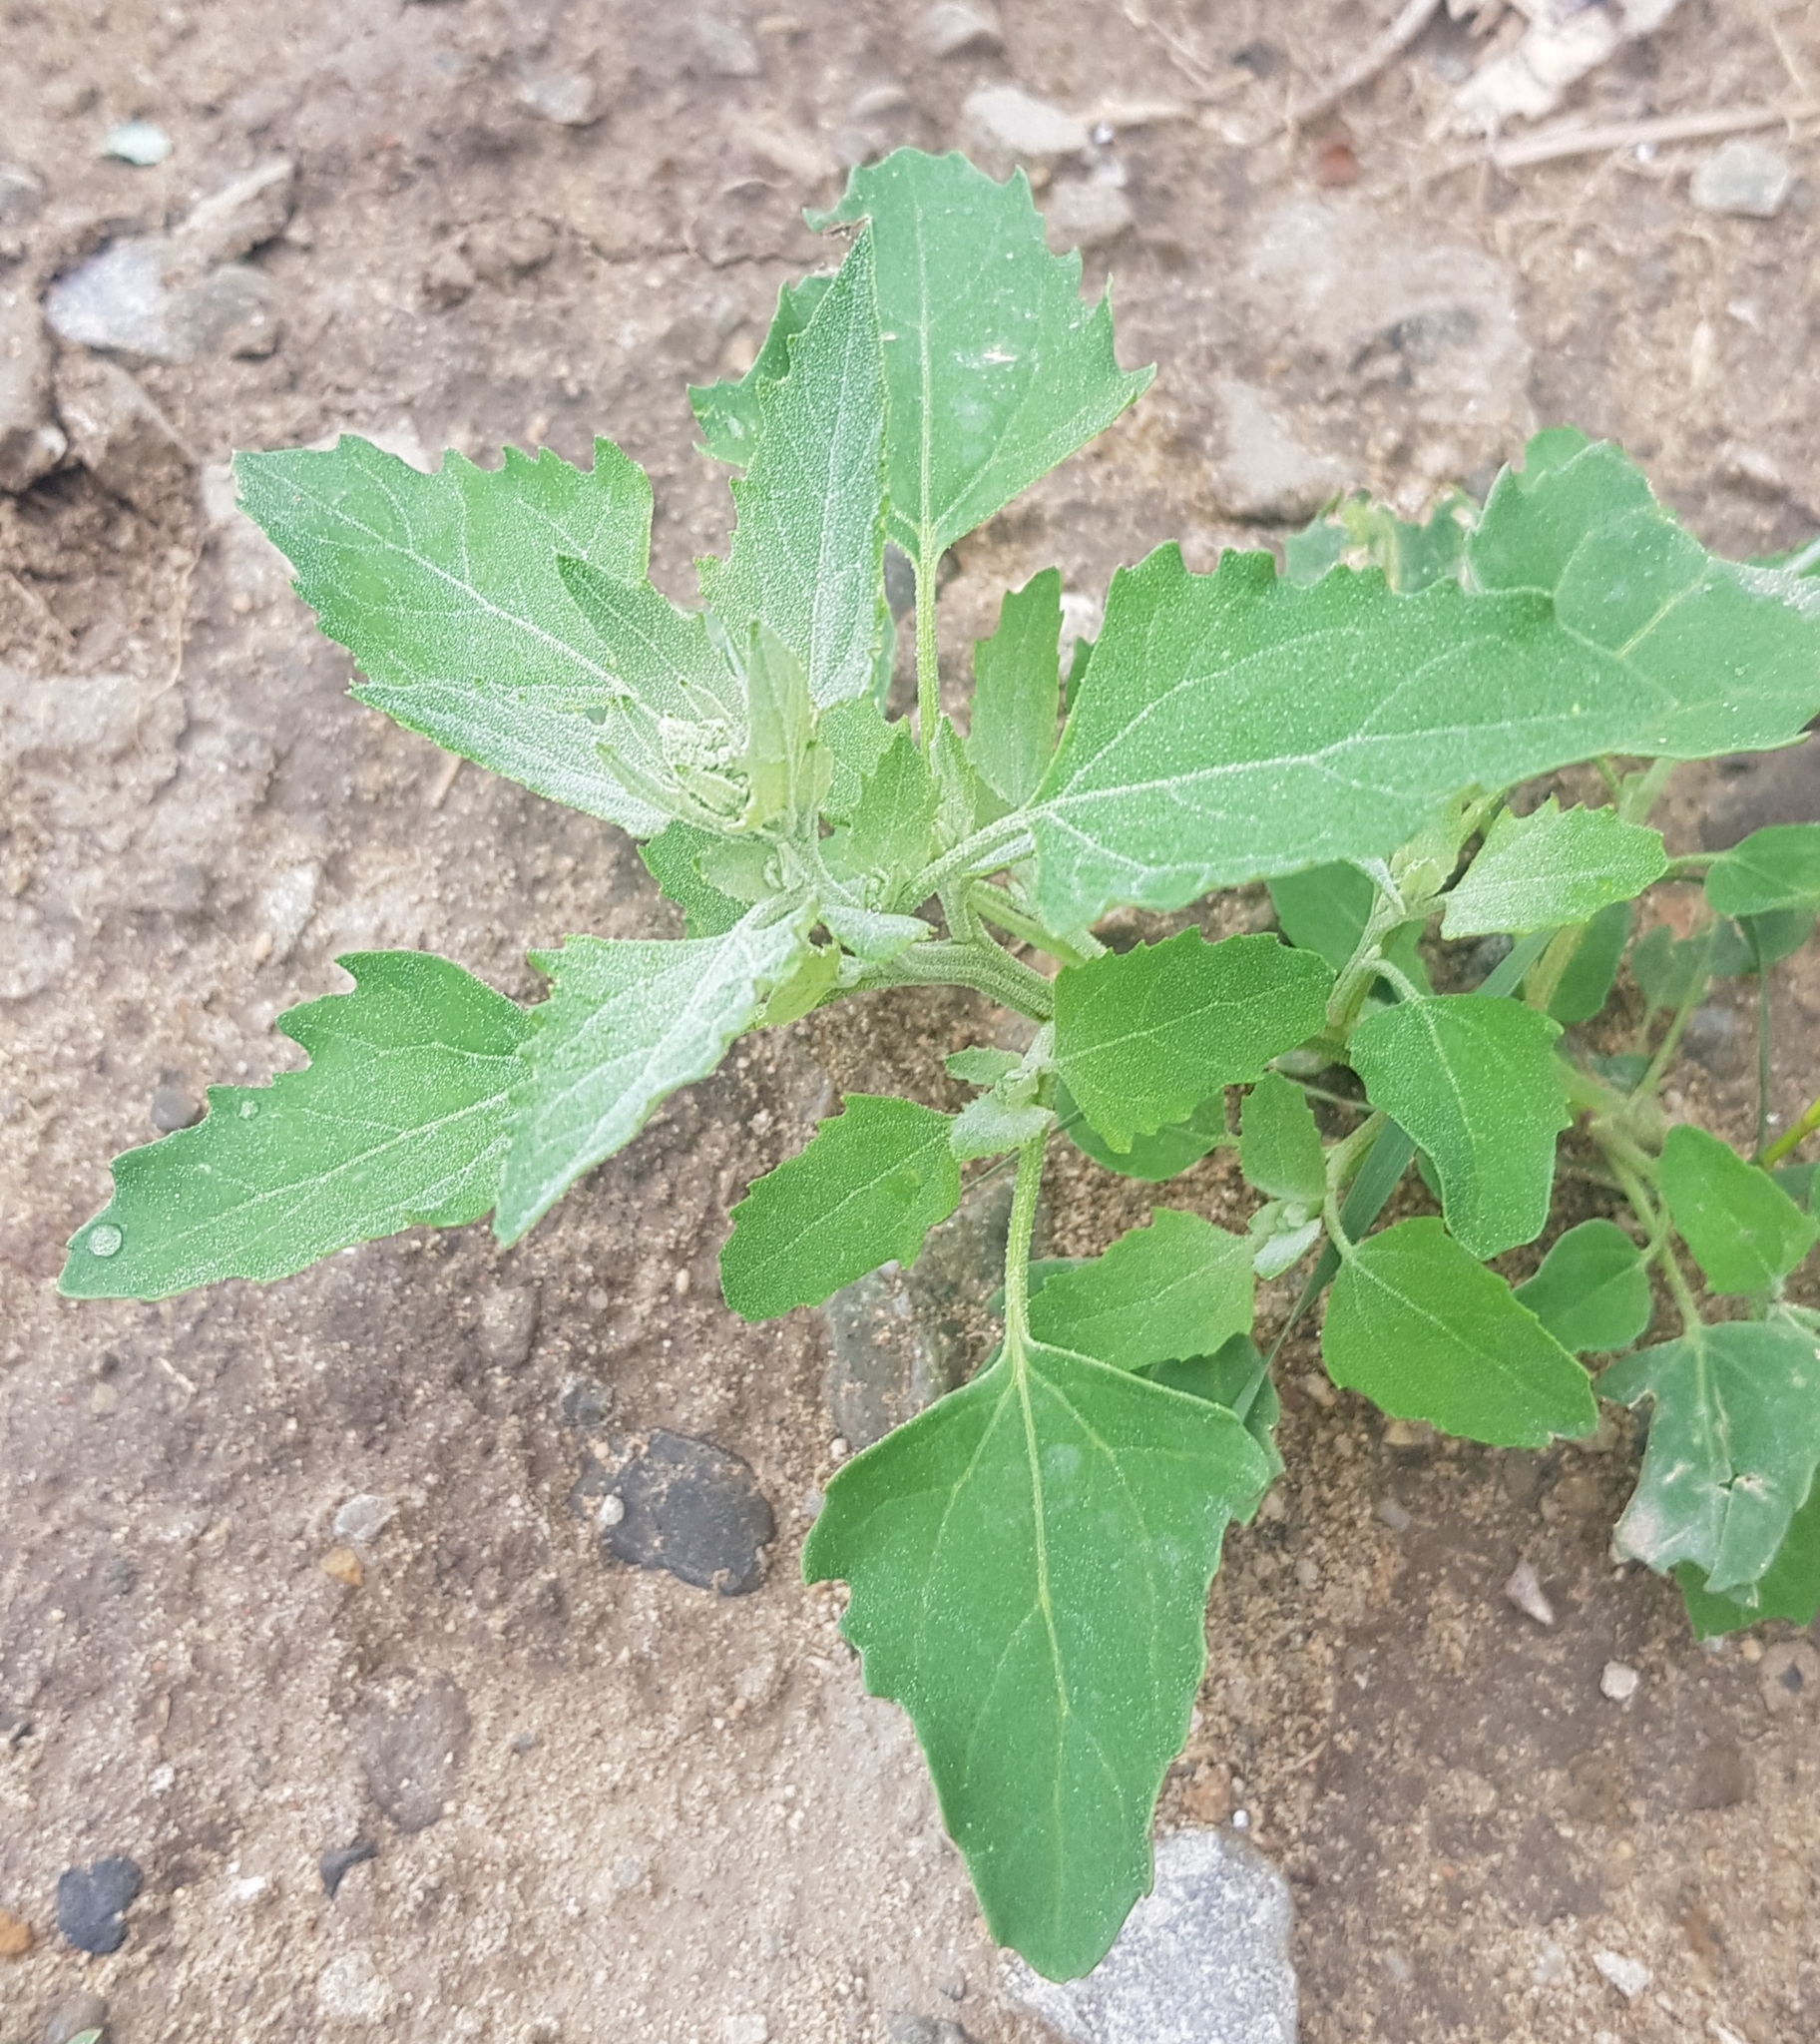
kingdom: Plantae
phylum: Tracheophyta
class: Magnoliopsida
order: Caryophyllales
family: Amaranthaceae
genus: Chenopodium
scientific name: Chenopodium album
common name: Fat-hen
